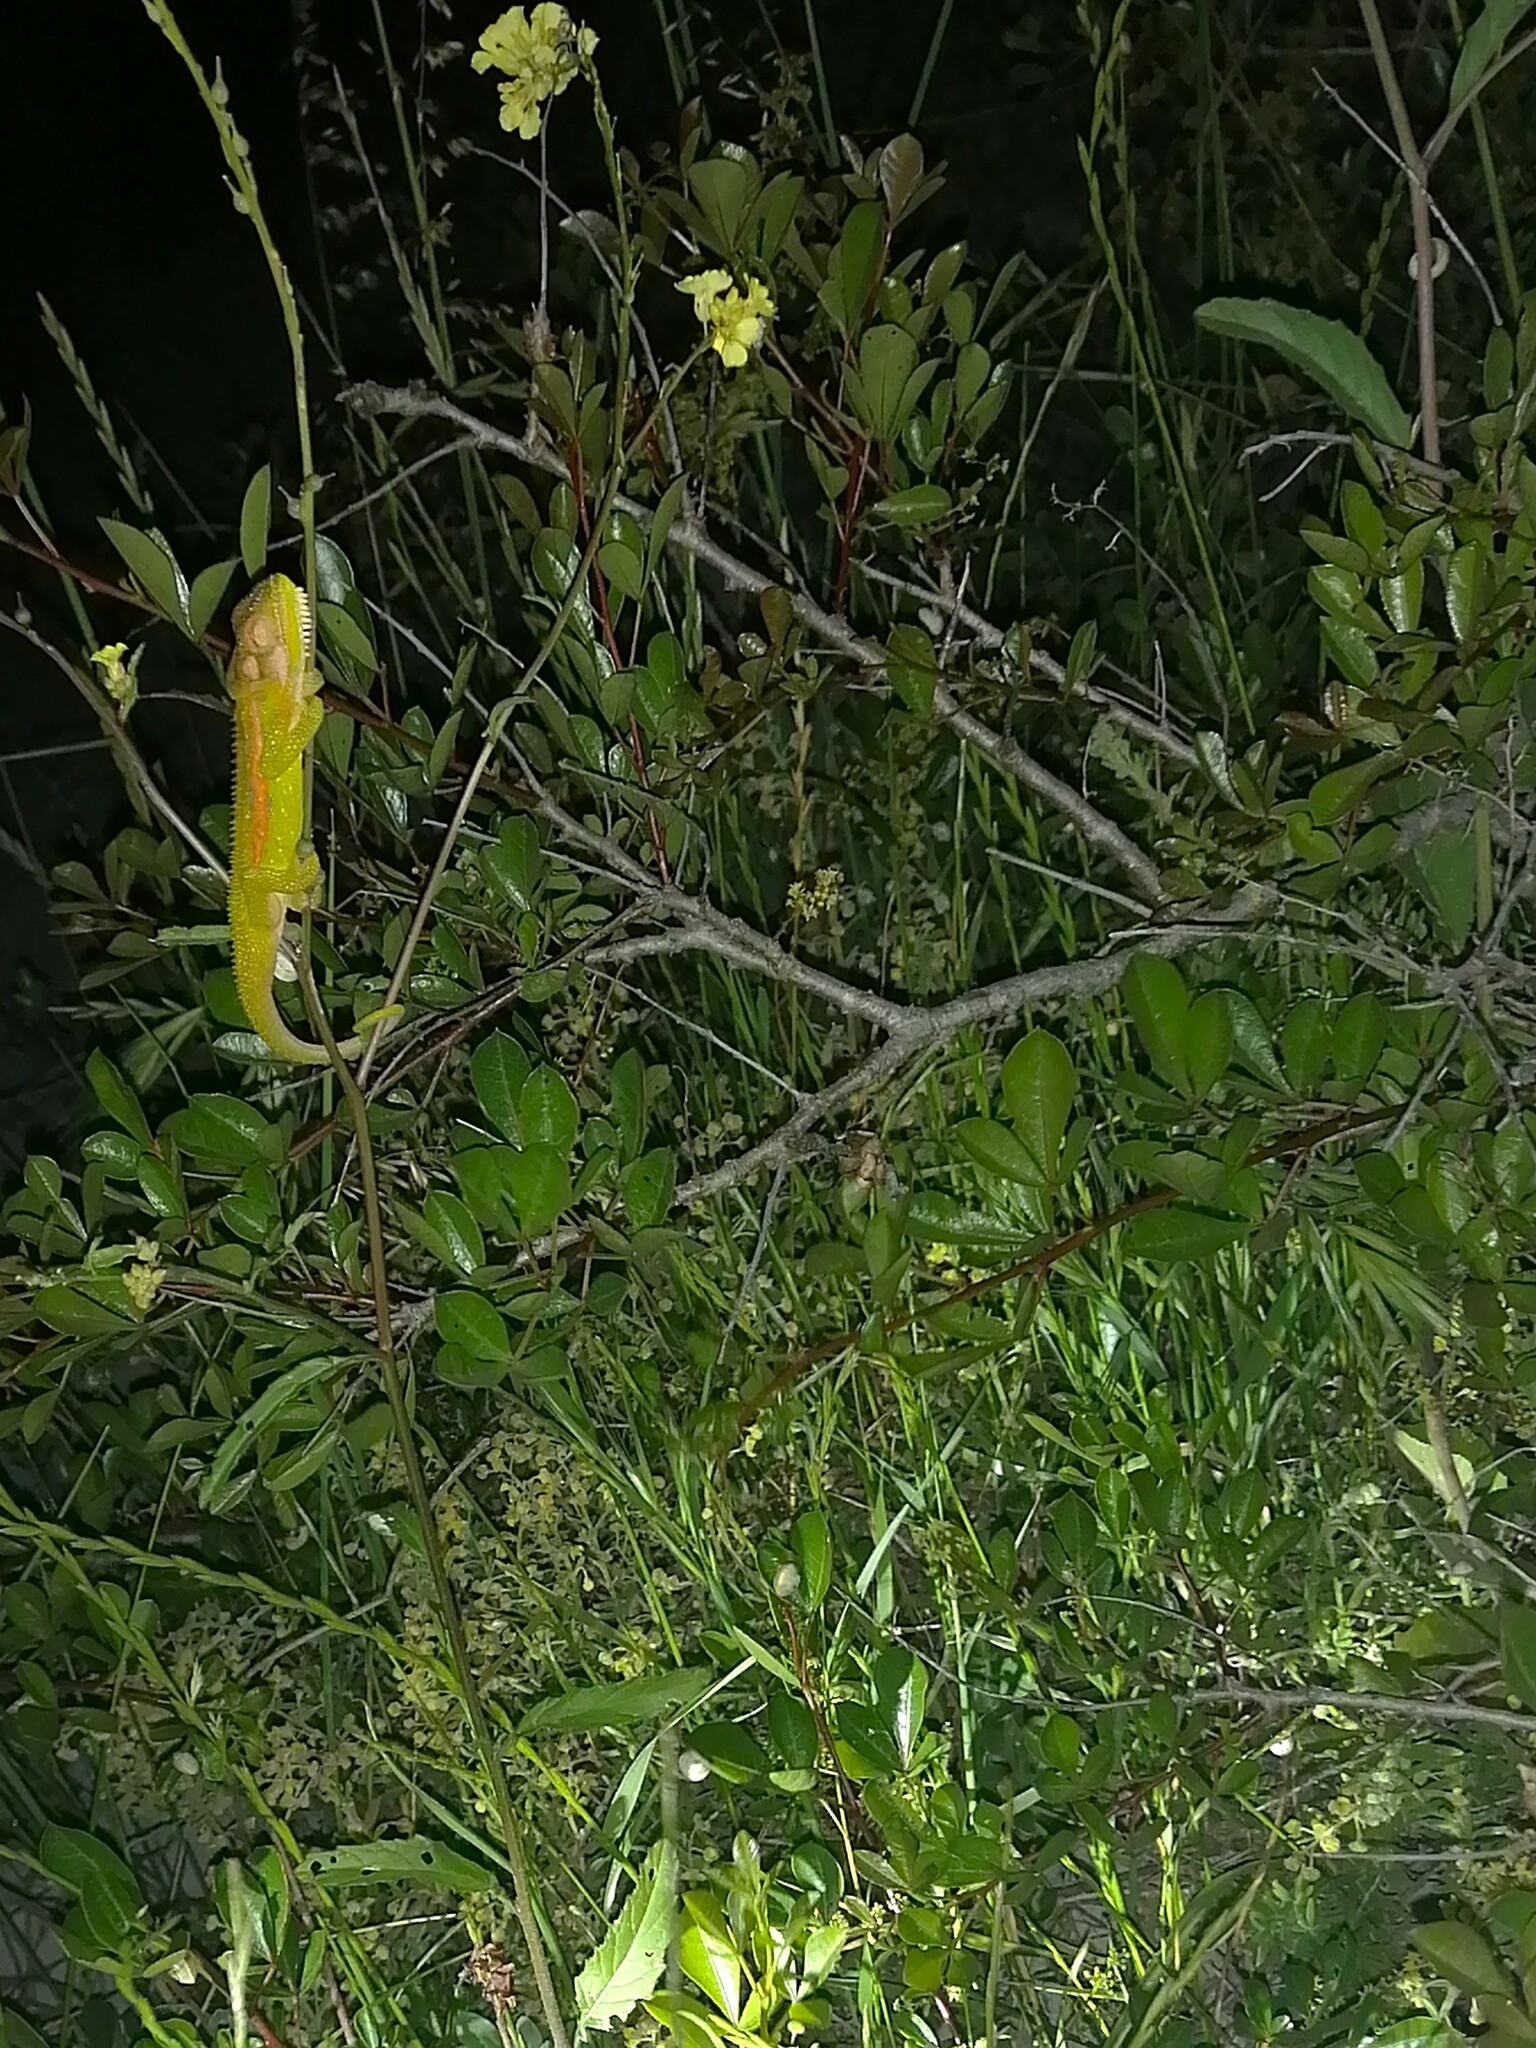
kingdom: Animalia
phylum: Chordata
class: Squamata
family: Chamaeleonidae
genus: Bradypodion
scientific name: Bradypodion pumilum
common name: Cape dwarf chameleon
